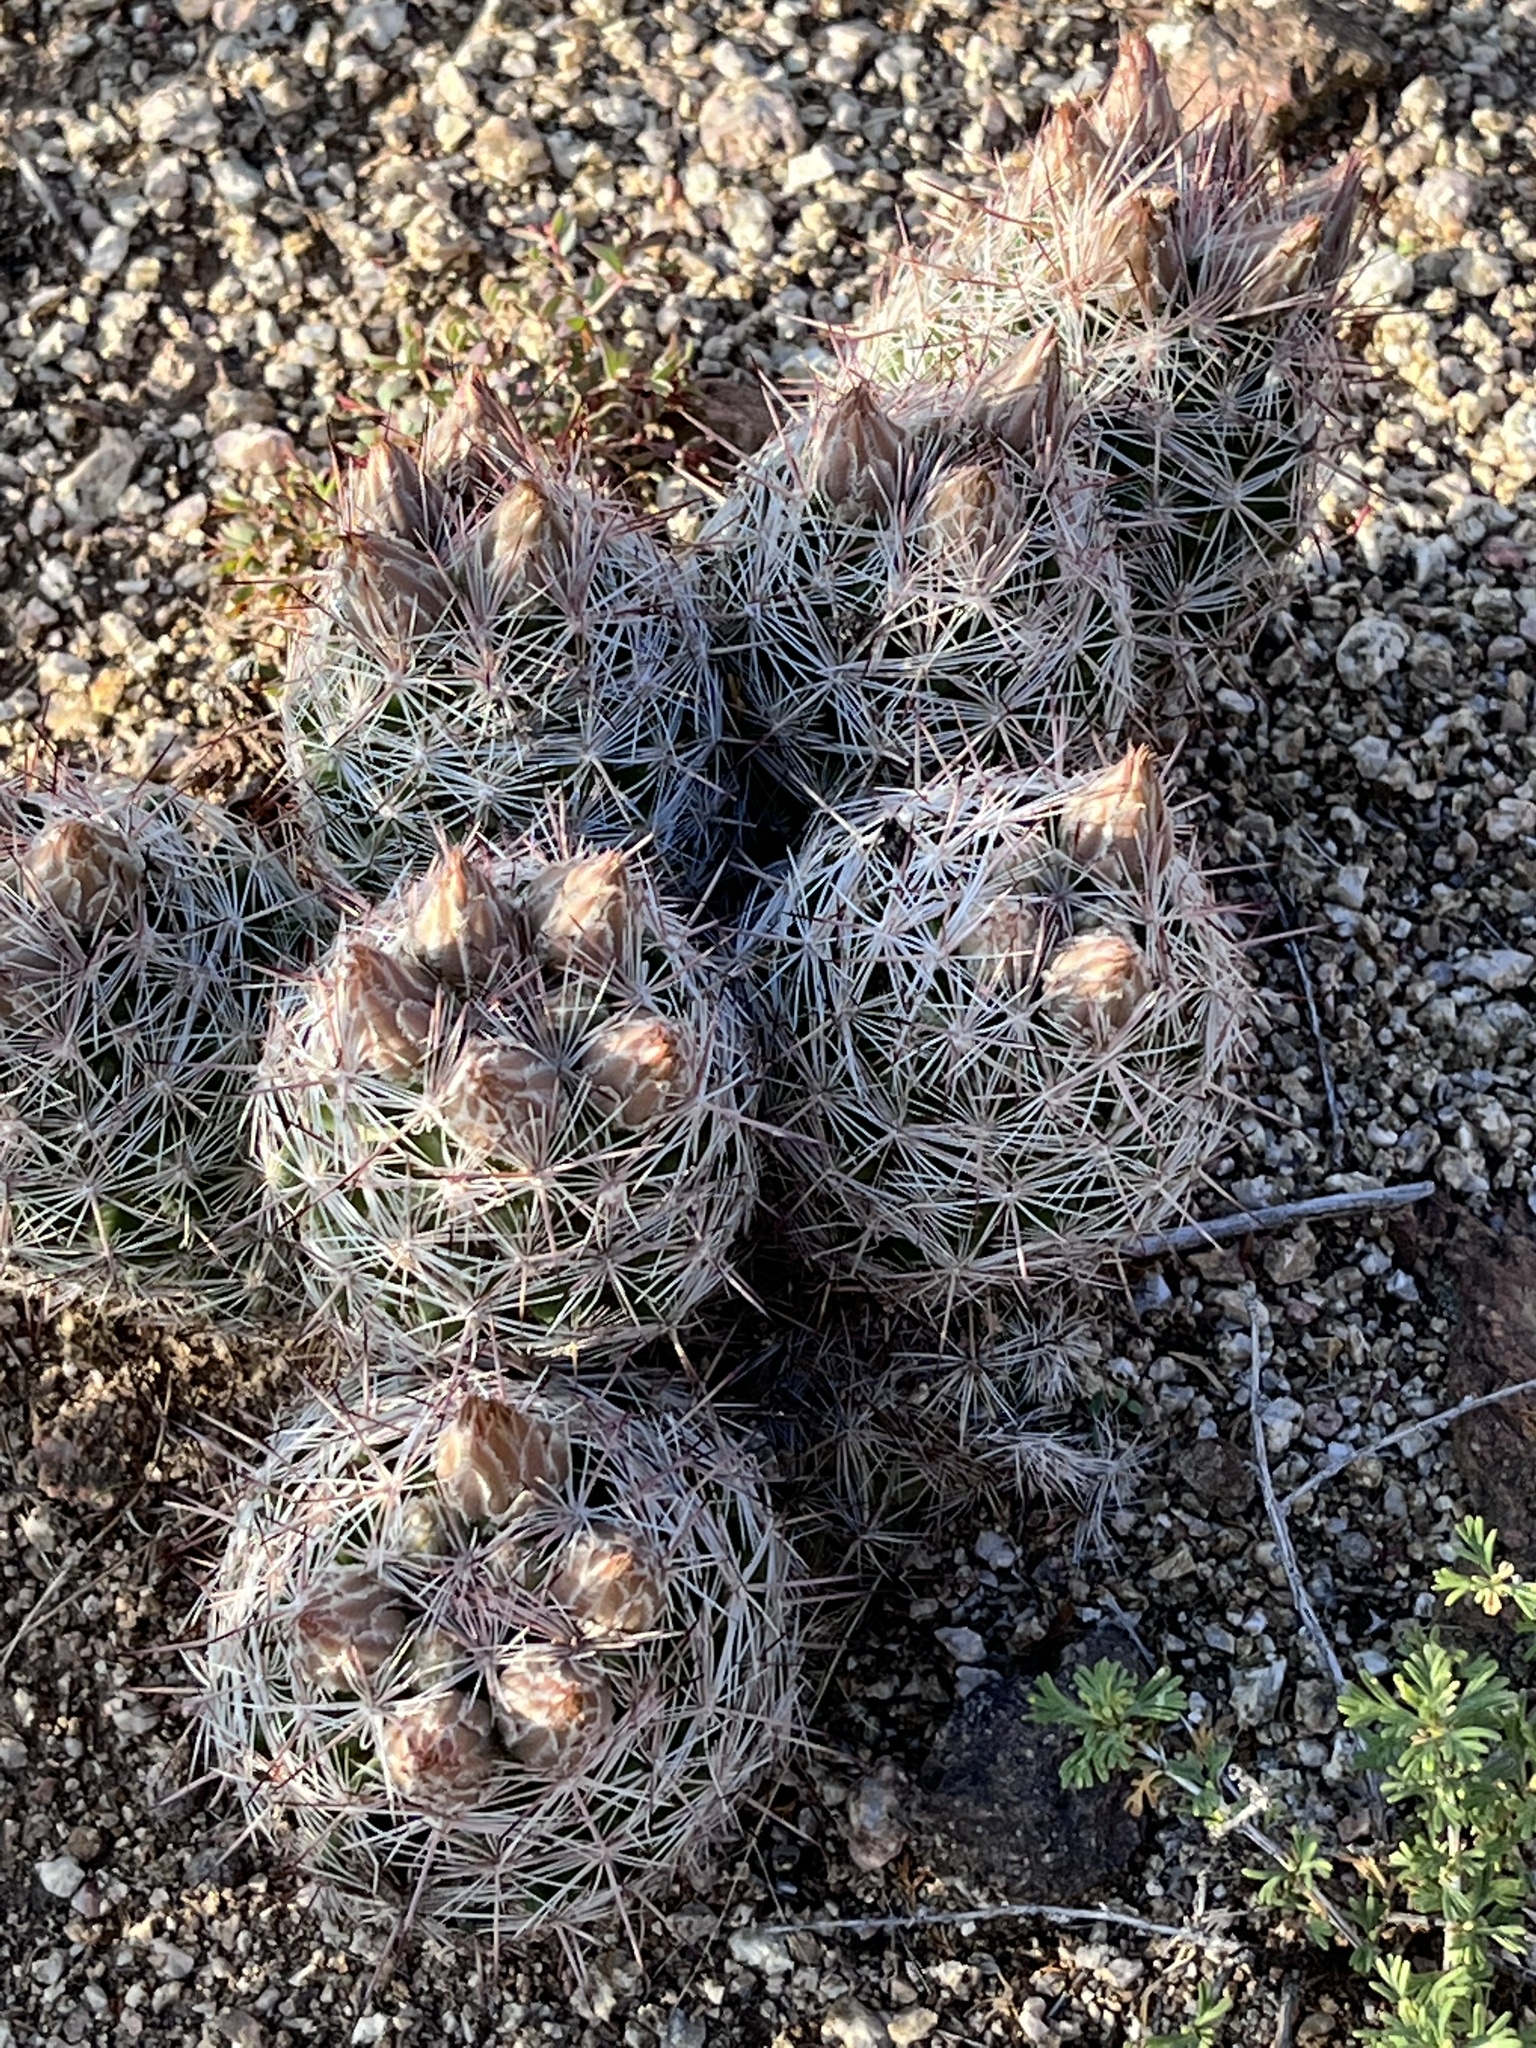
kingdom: Plantae
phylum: Tracheophyta
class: Magnoliopsida
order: Caryophyllales
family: Cactaceae
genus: Pelecyphora
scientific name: Pelecyphora vivipara
